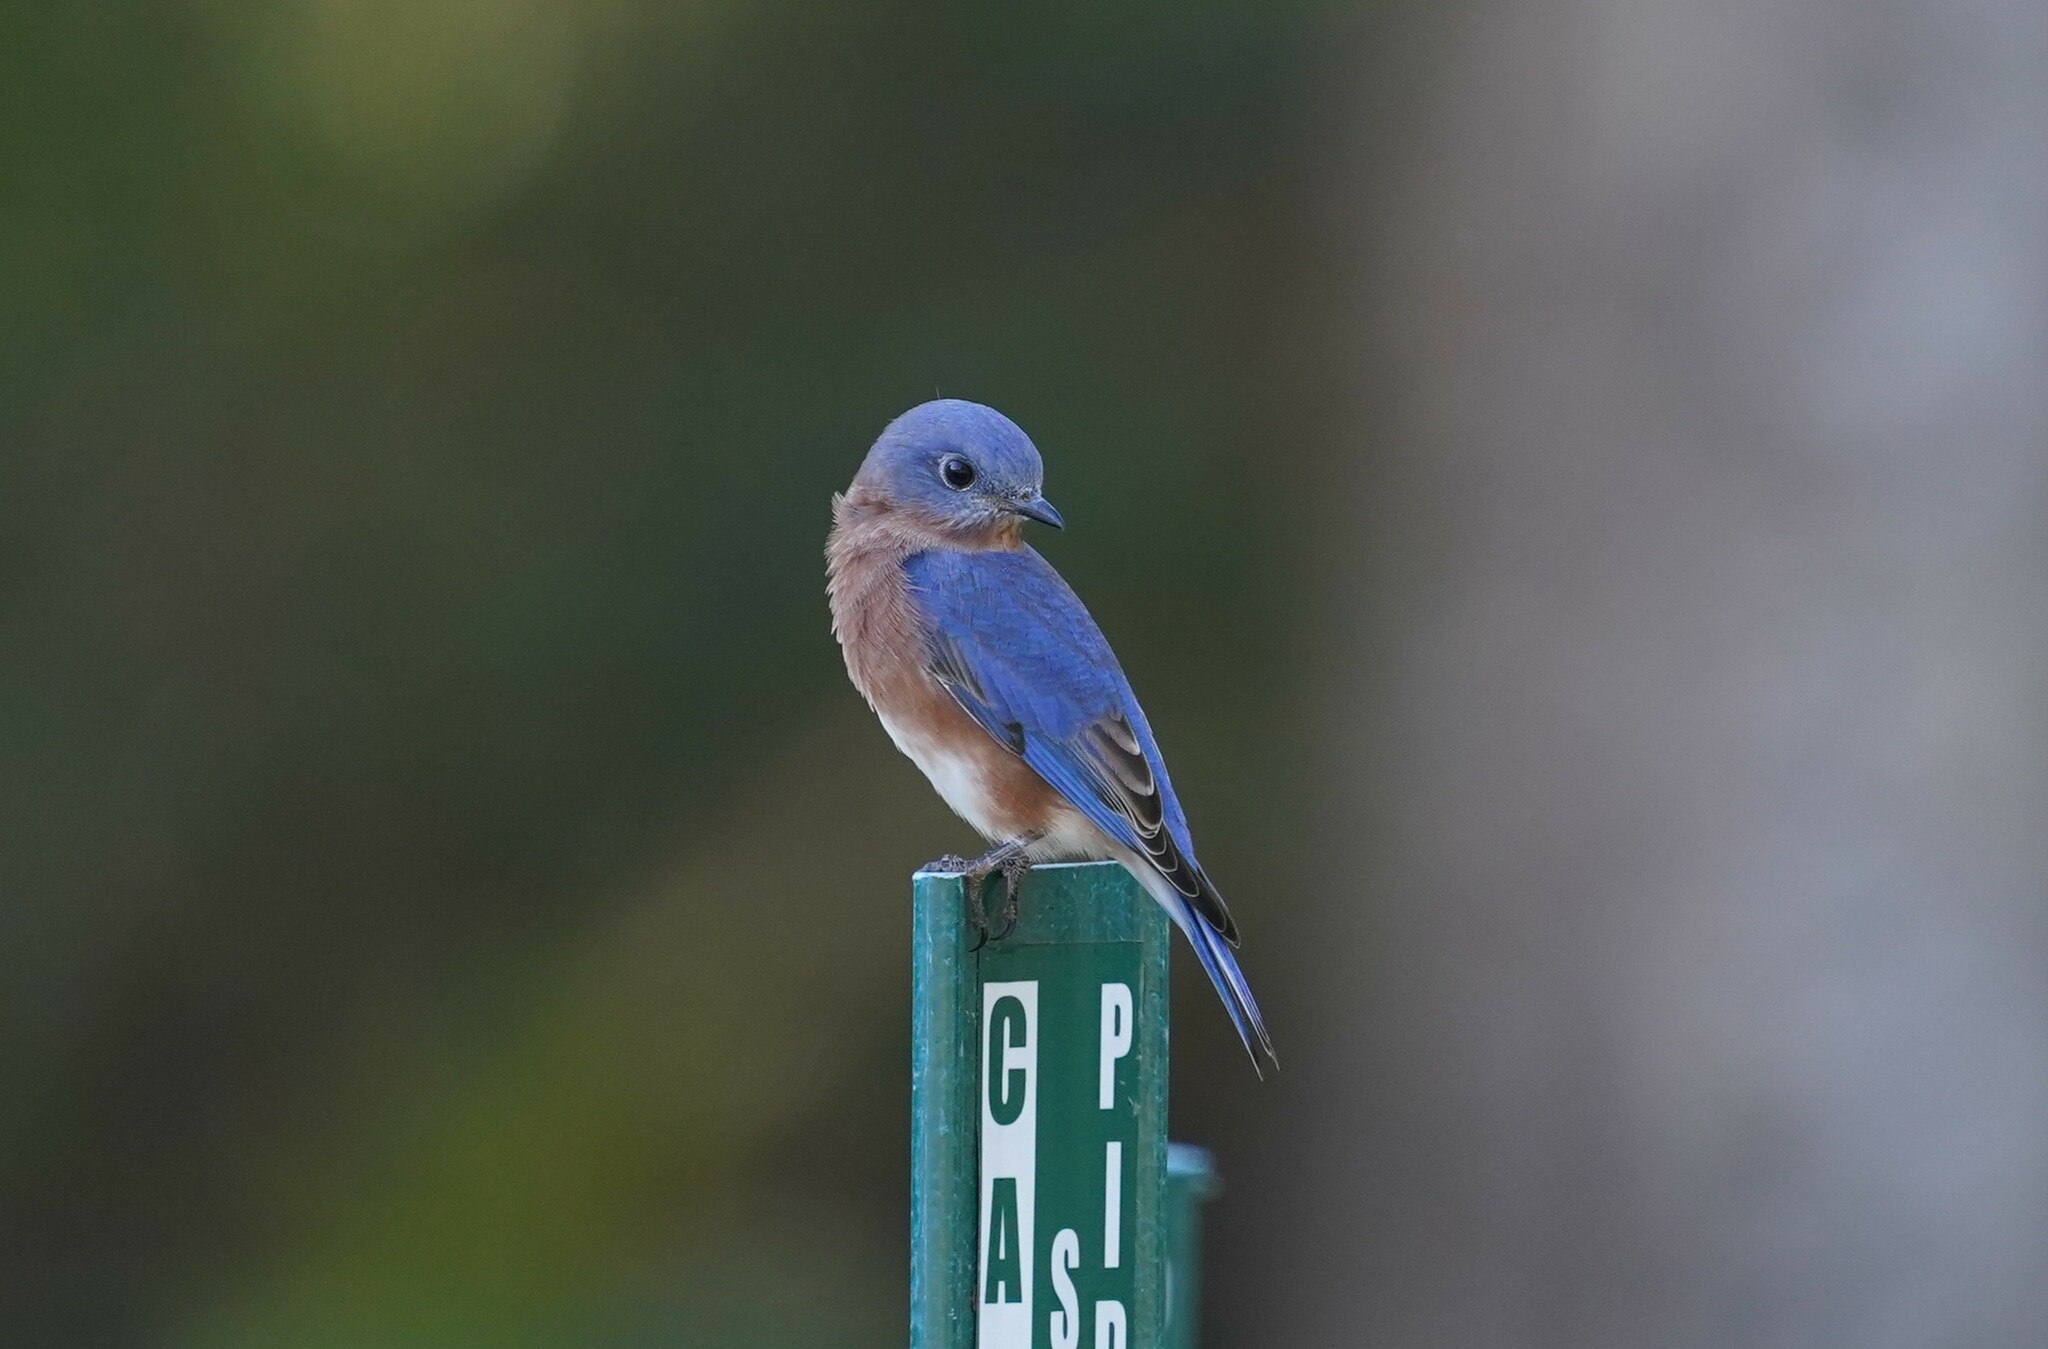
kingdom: Animalia
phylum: Chordata
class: Aves
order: Passeriformes
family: Turdidae
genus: Sialia
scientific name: Sialia sialis
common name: Eastern bluebird
